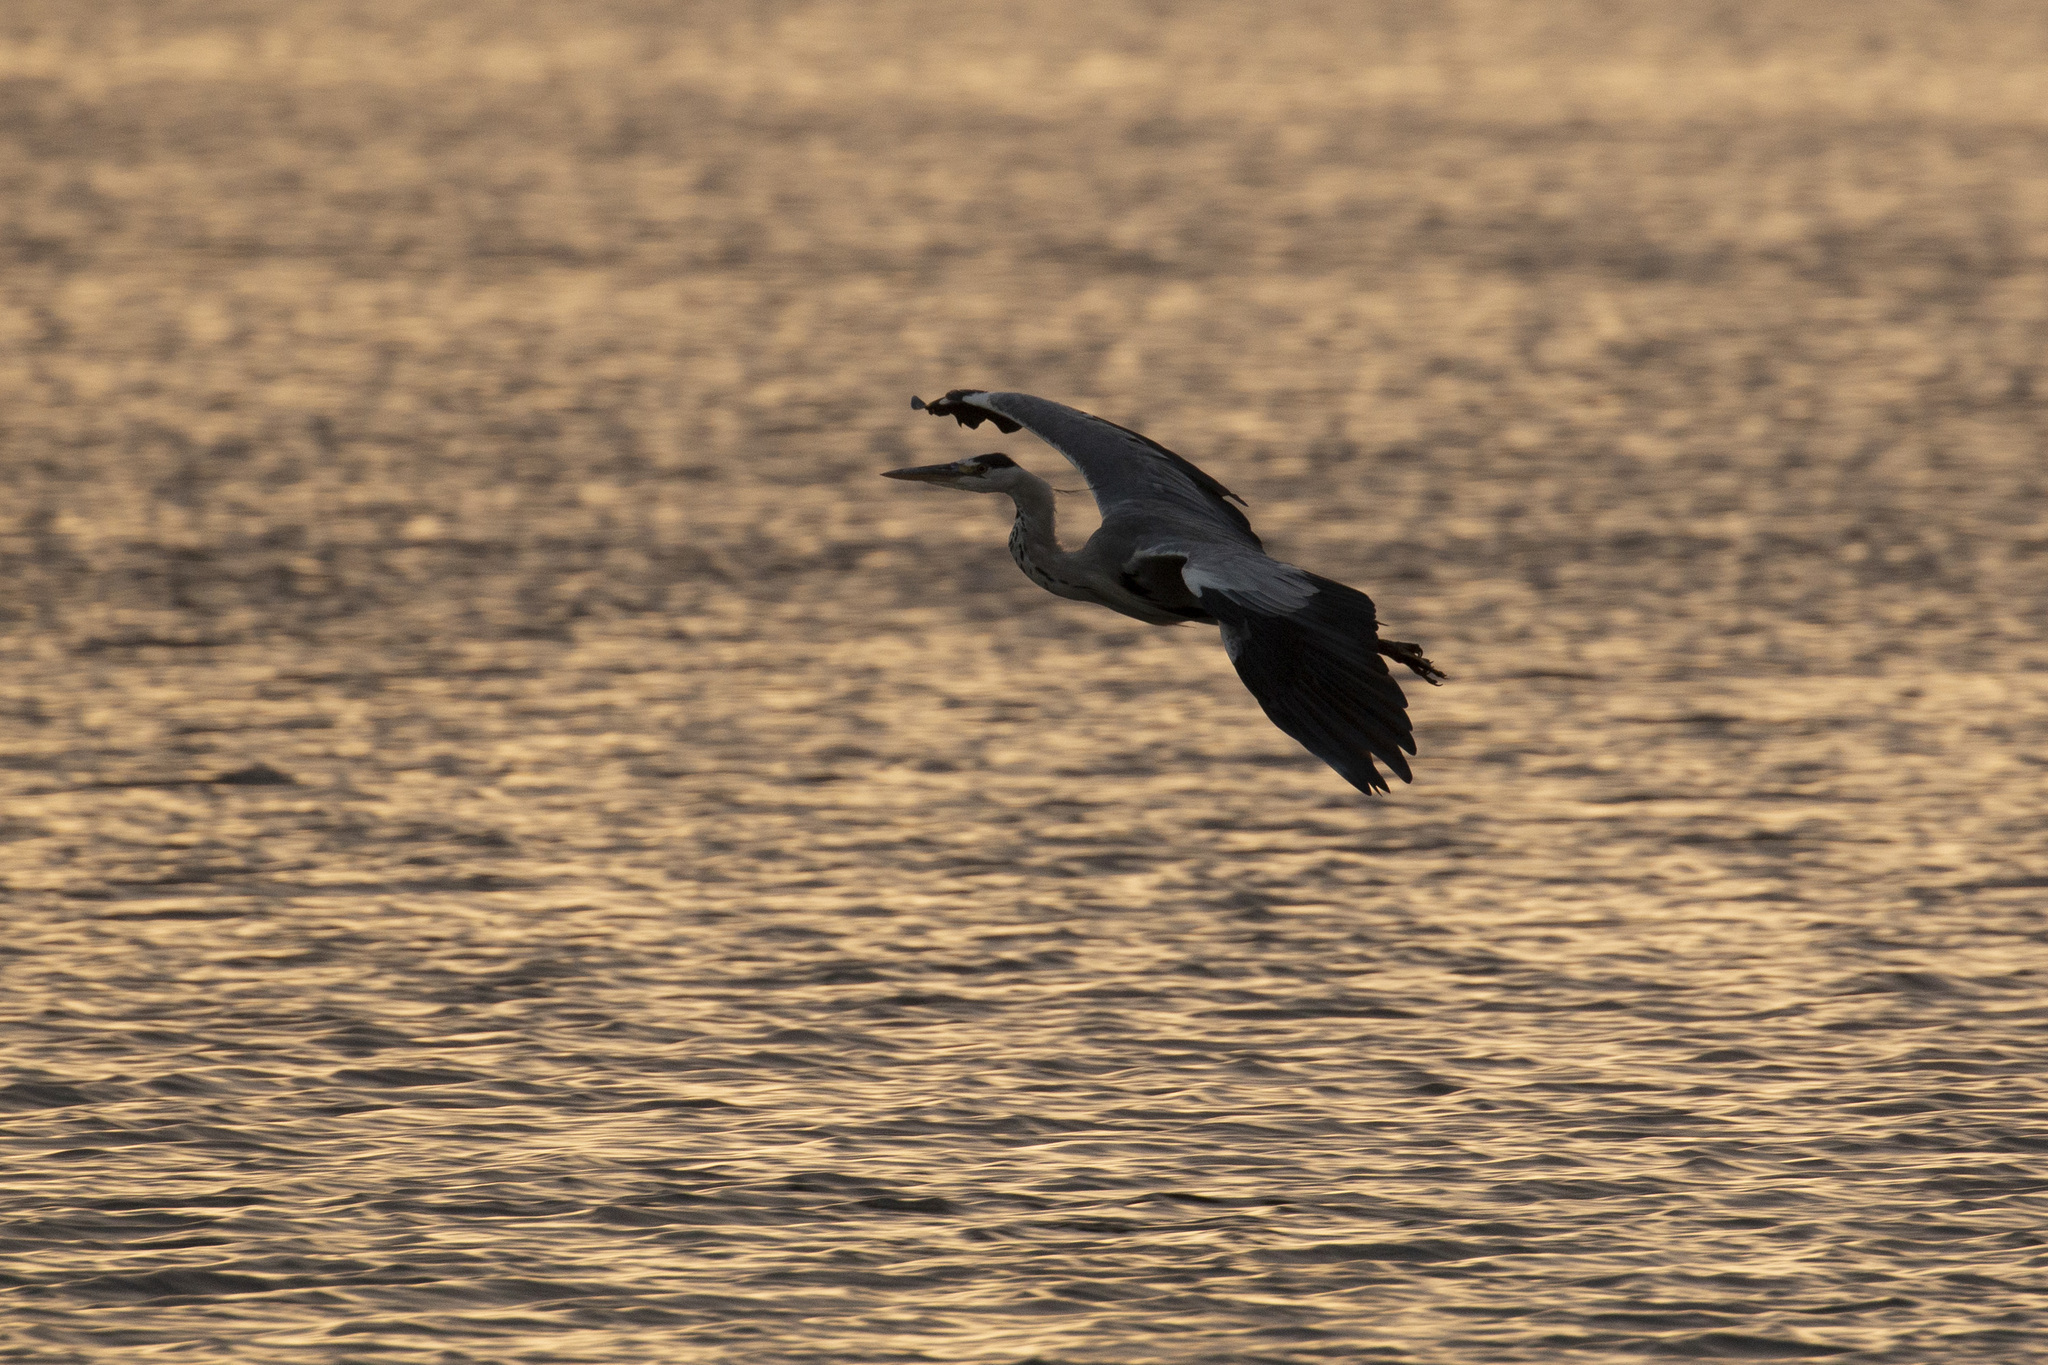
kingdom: Animalia
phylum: Chordata
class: Aves
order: Pelecaniformes
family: Ardeidae
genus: Ardea
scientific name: Ardea cinerea
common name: Grey heron
